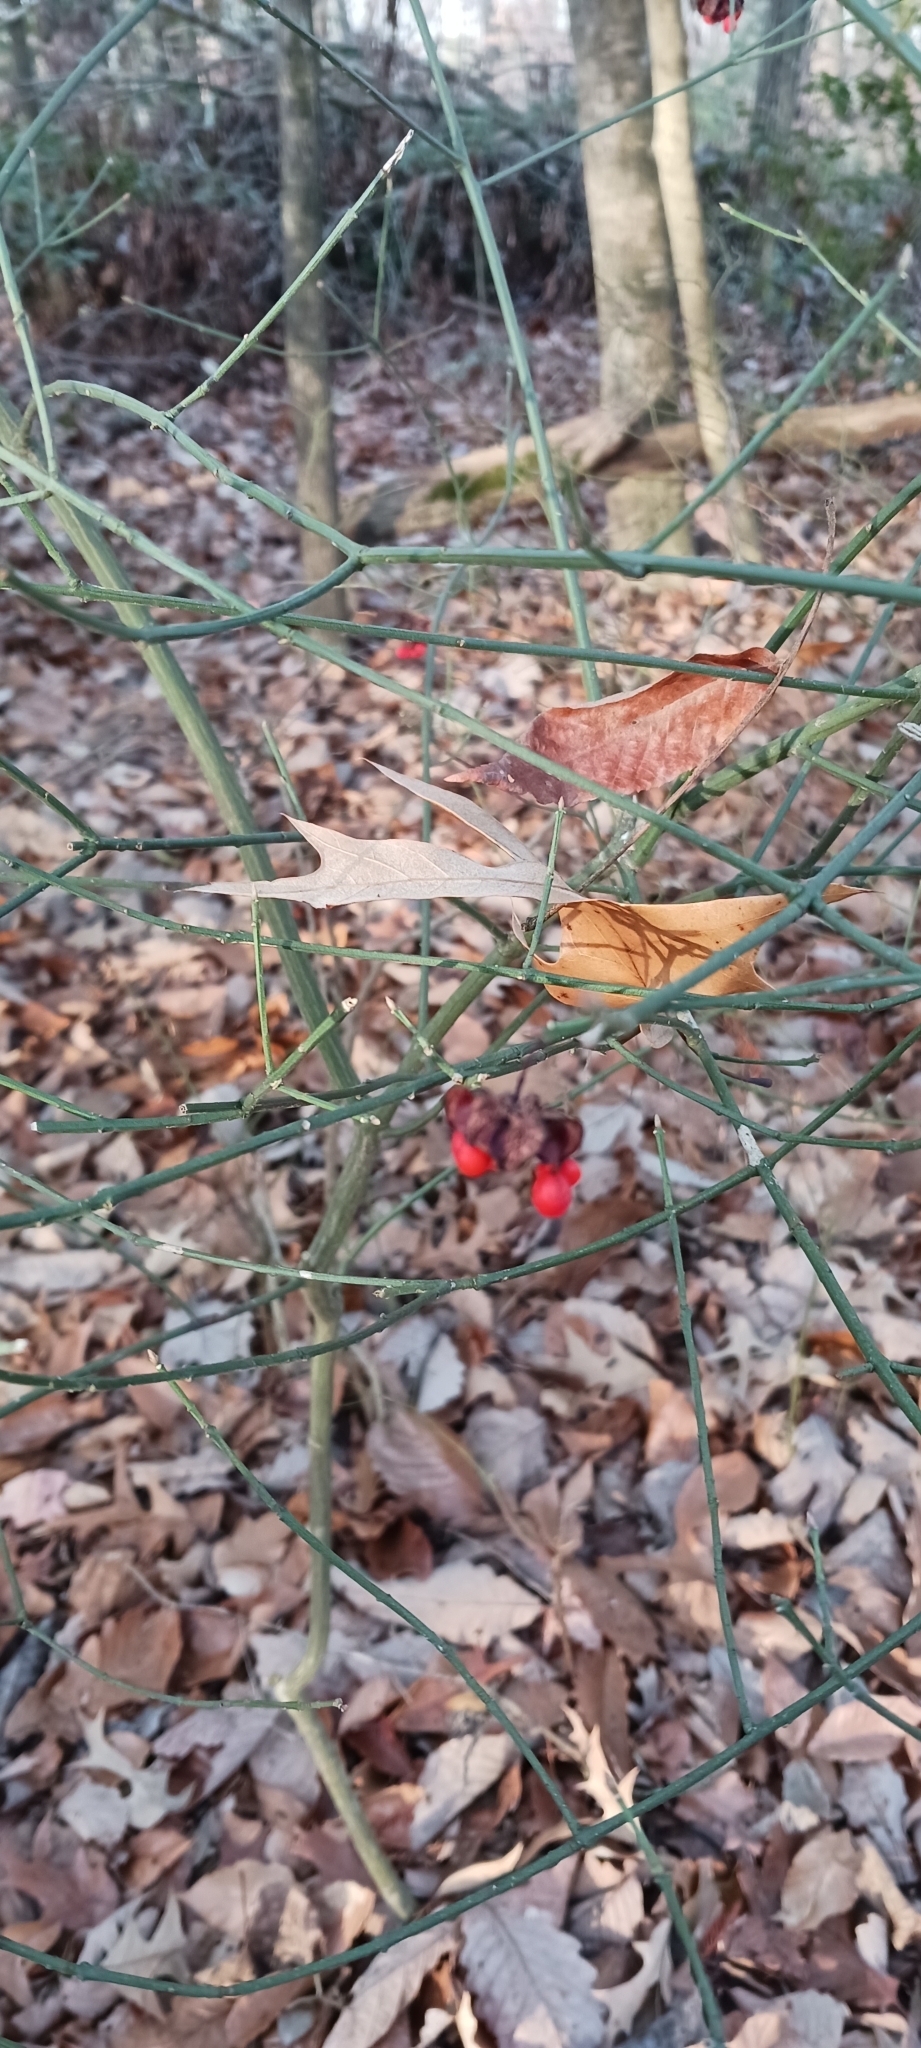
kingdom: Plantae
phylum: Tracheophyta
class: Magnoliopsida
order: Celastrales
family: Celastraceae
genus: Euonymus
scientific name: Euonymus americanus
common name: Bursting-heart
